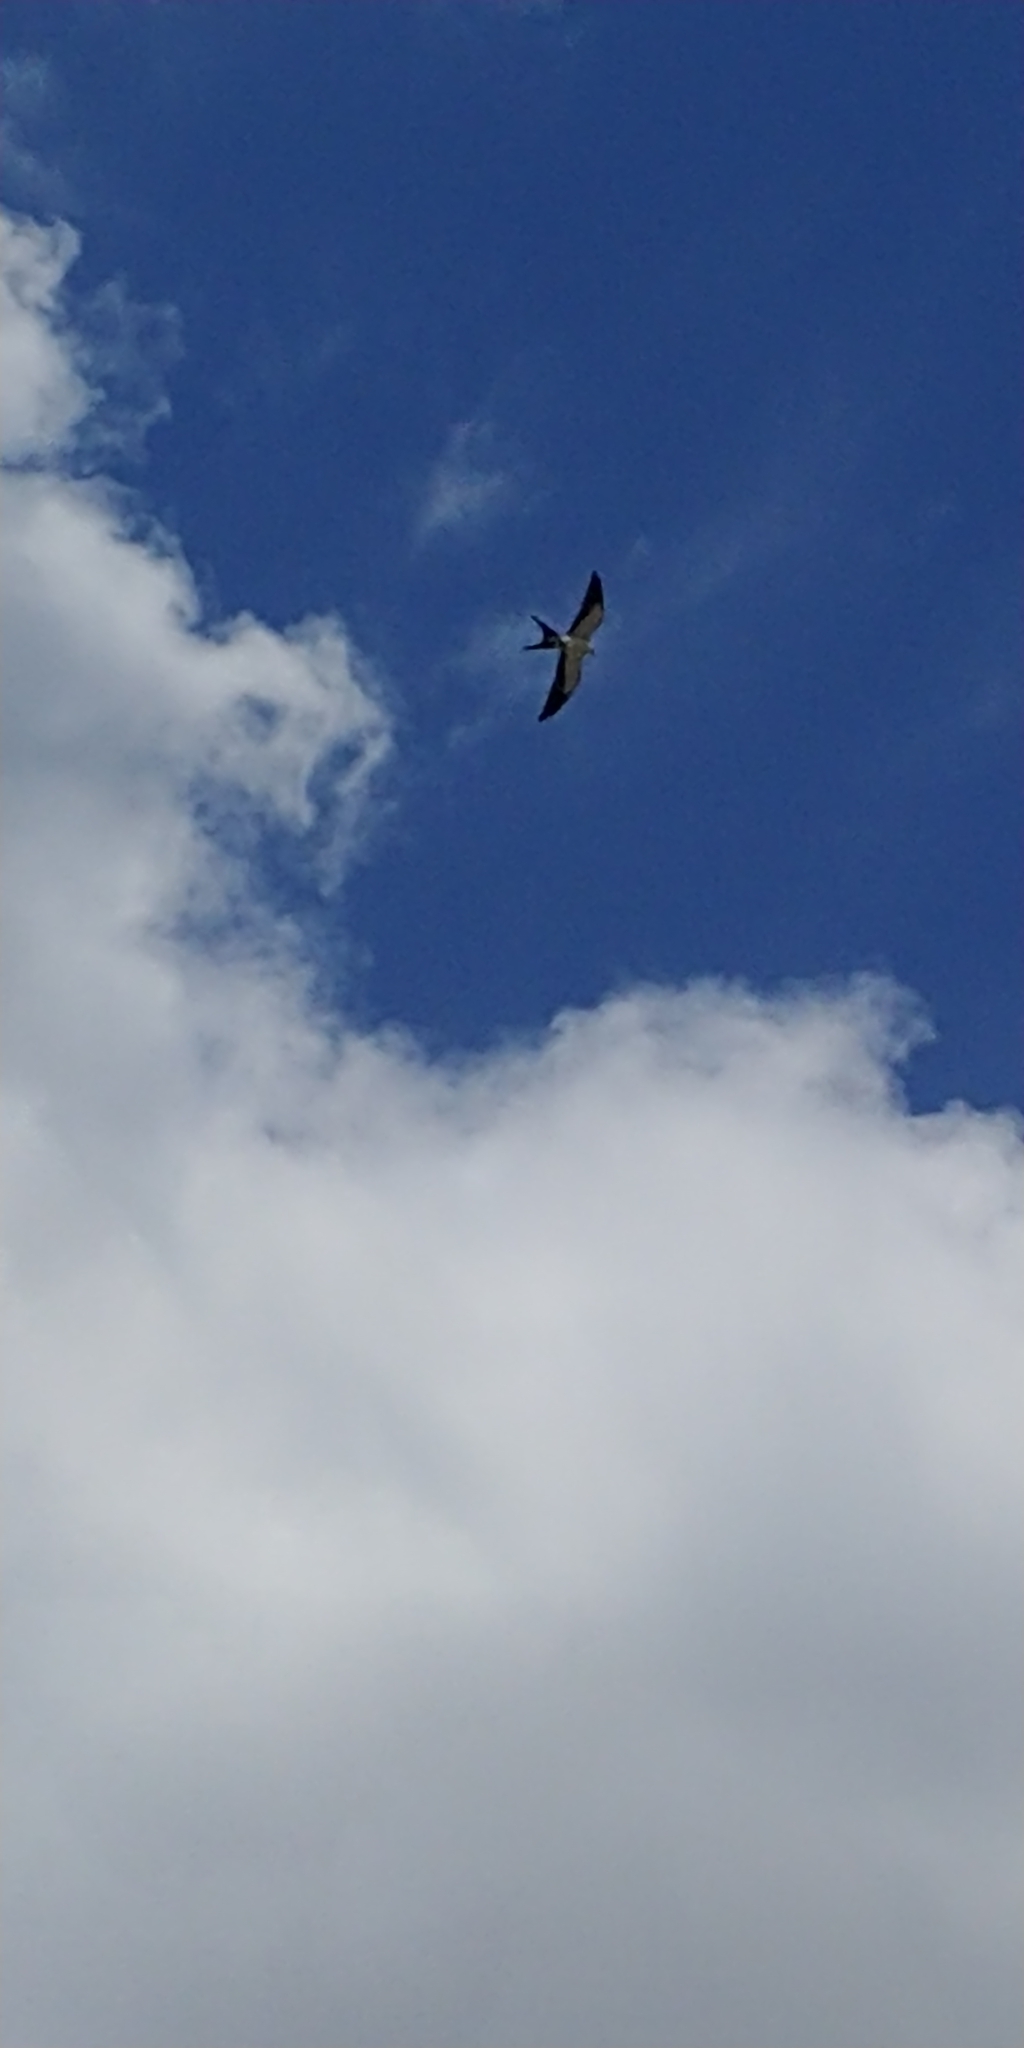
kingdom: Animalia
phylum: Chordata
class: Aves
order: Accipitriformes
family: Accipitridae
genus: Elanoides
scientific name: Elanoides forficatus
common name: Swallow-tailed kite
